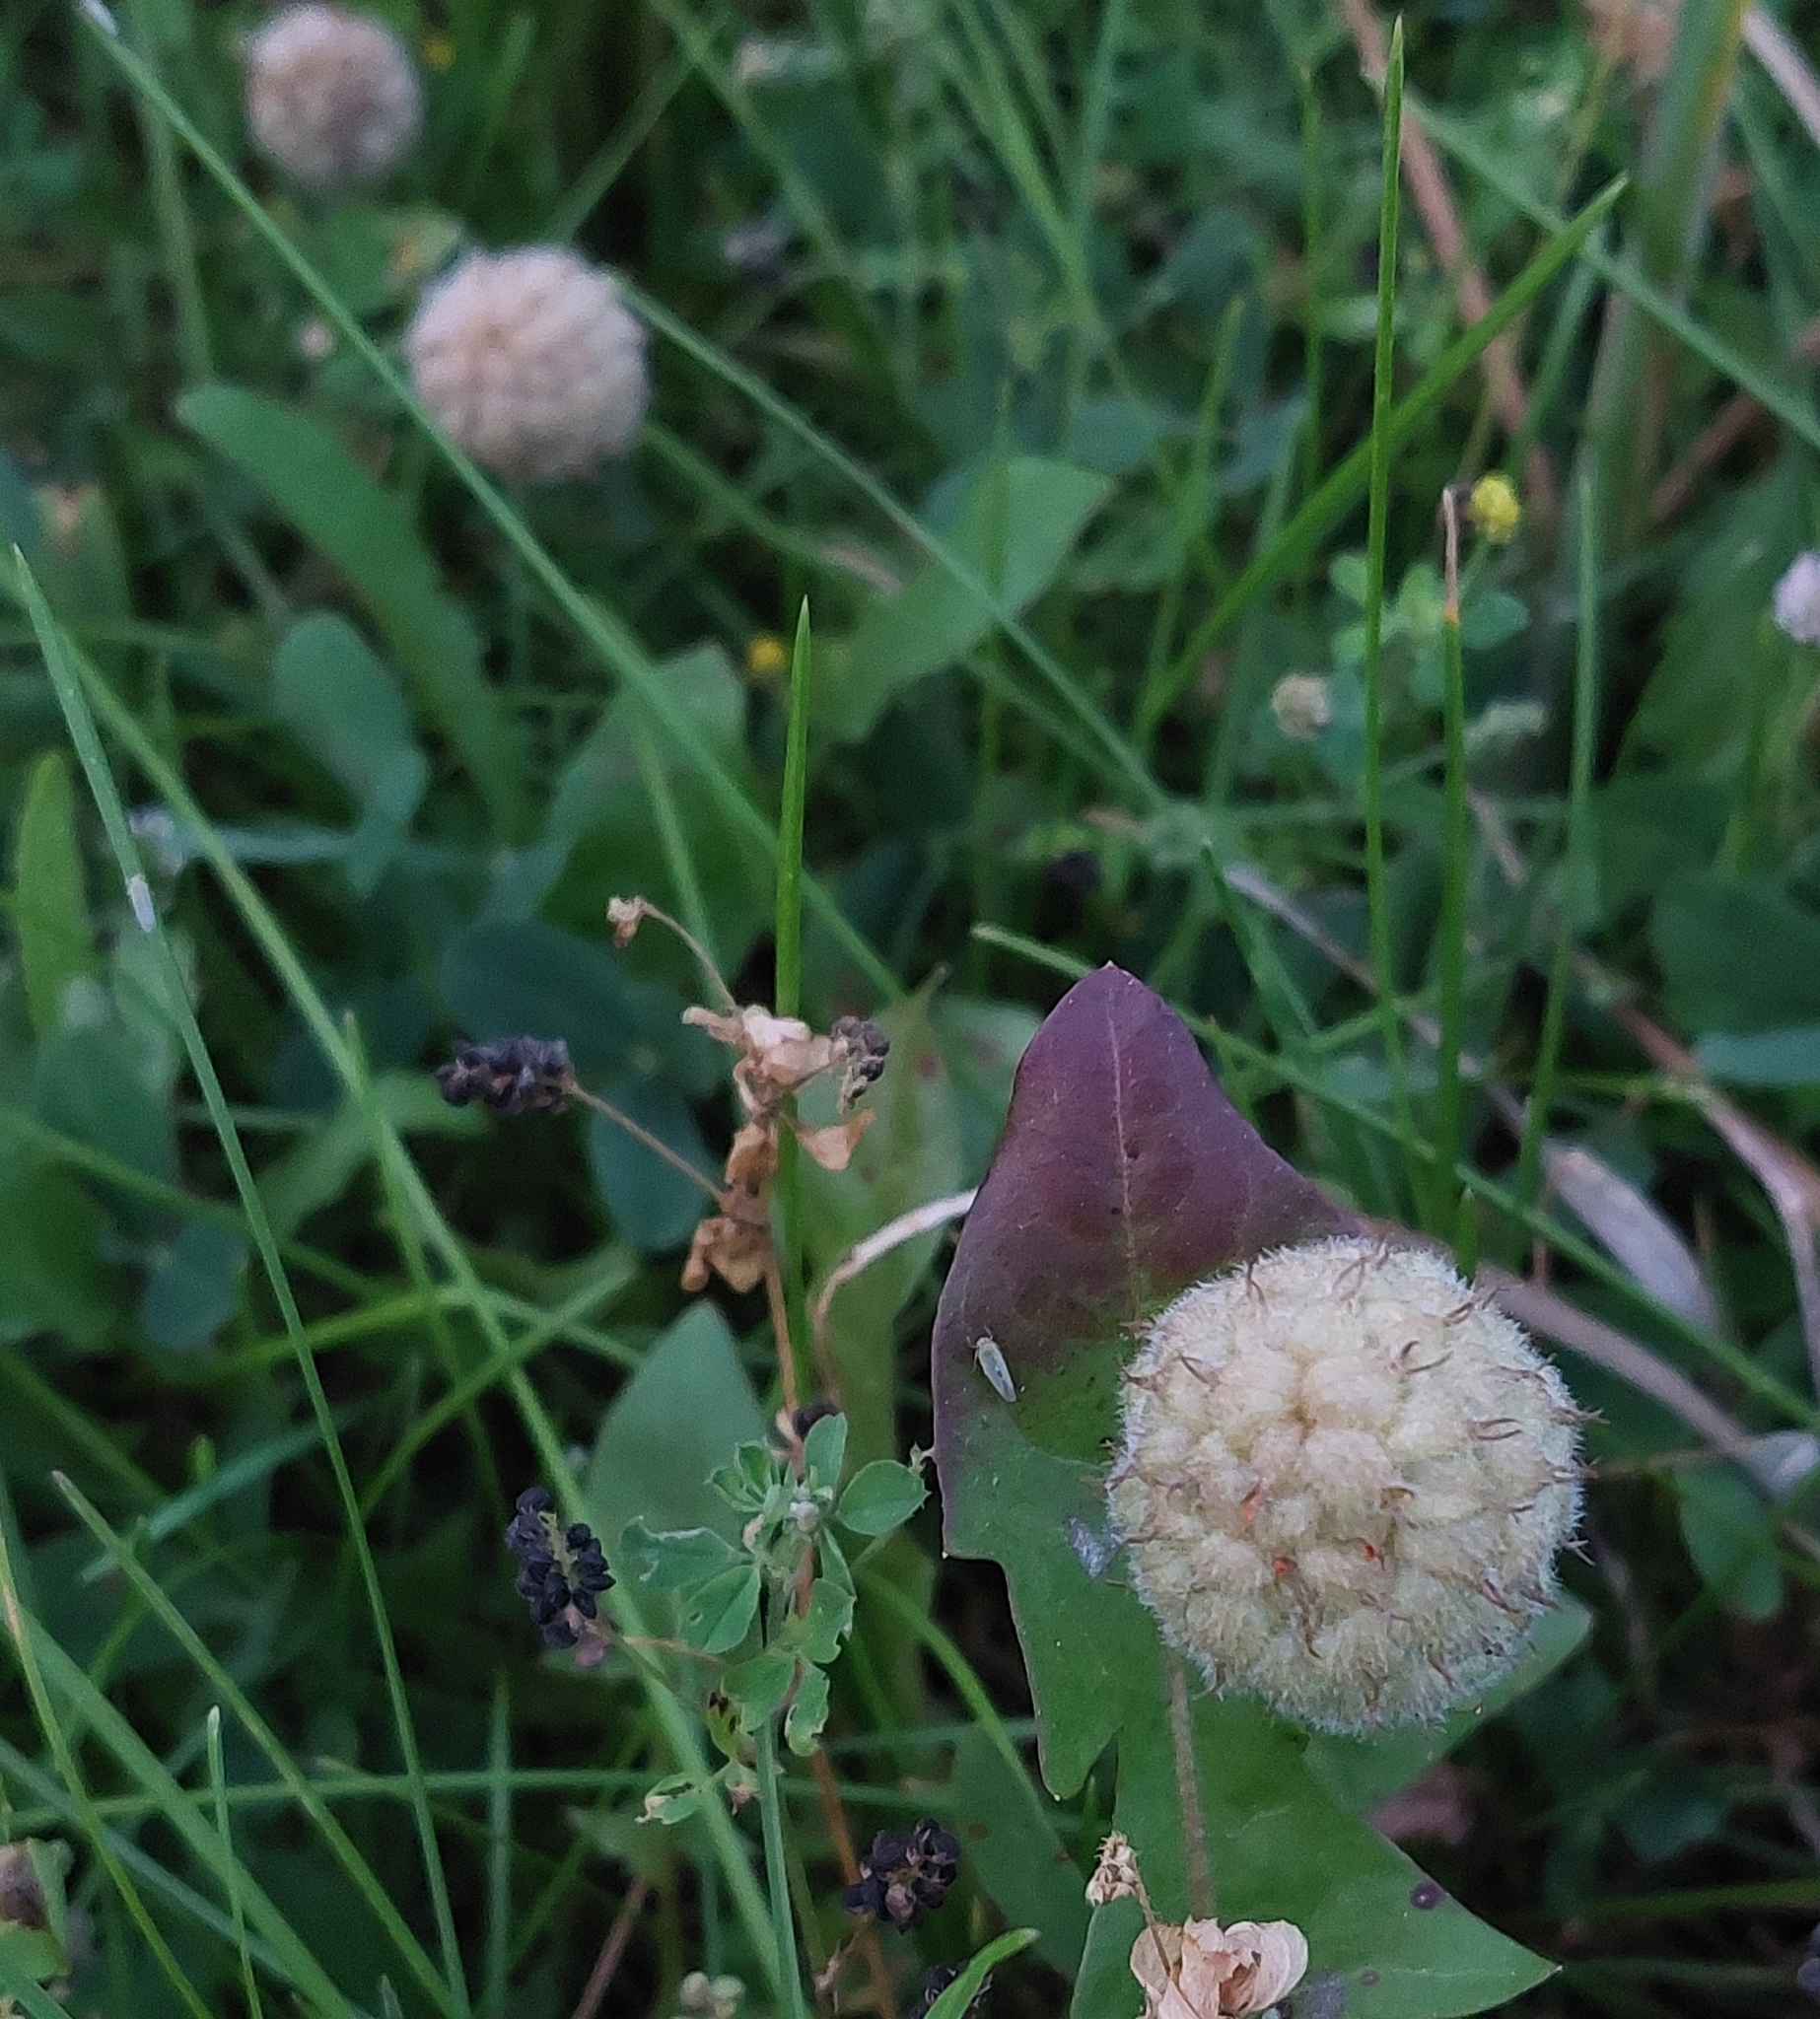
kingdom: Plantae
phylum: Tracheophyta
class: Magnoliopsida
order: Fabales
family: Fabaceae
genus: Trifolium
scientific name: Trifolium fragiferum
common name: Strawberry clover
